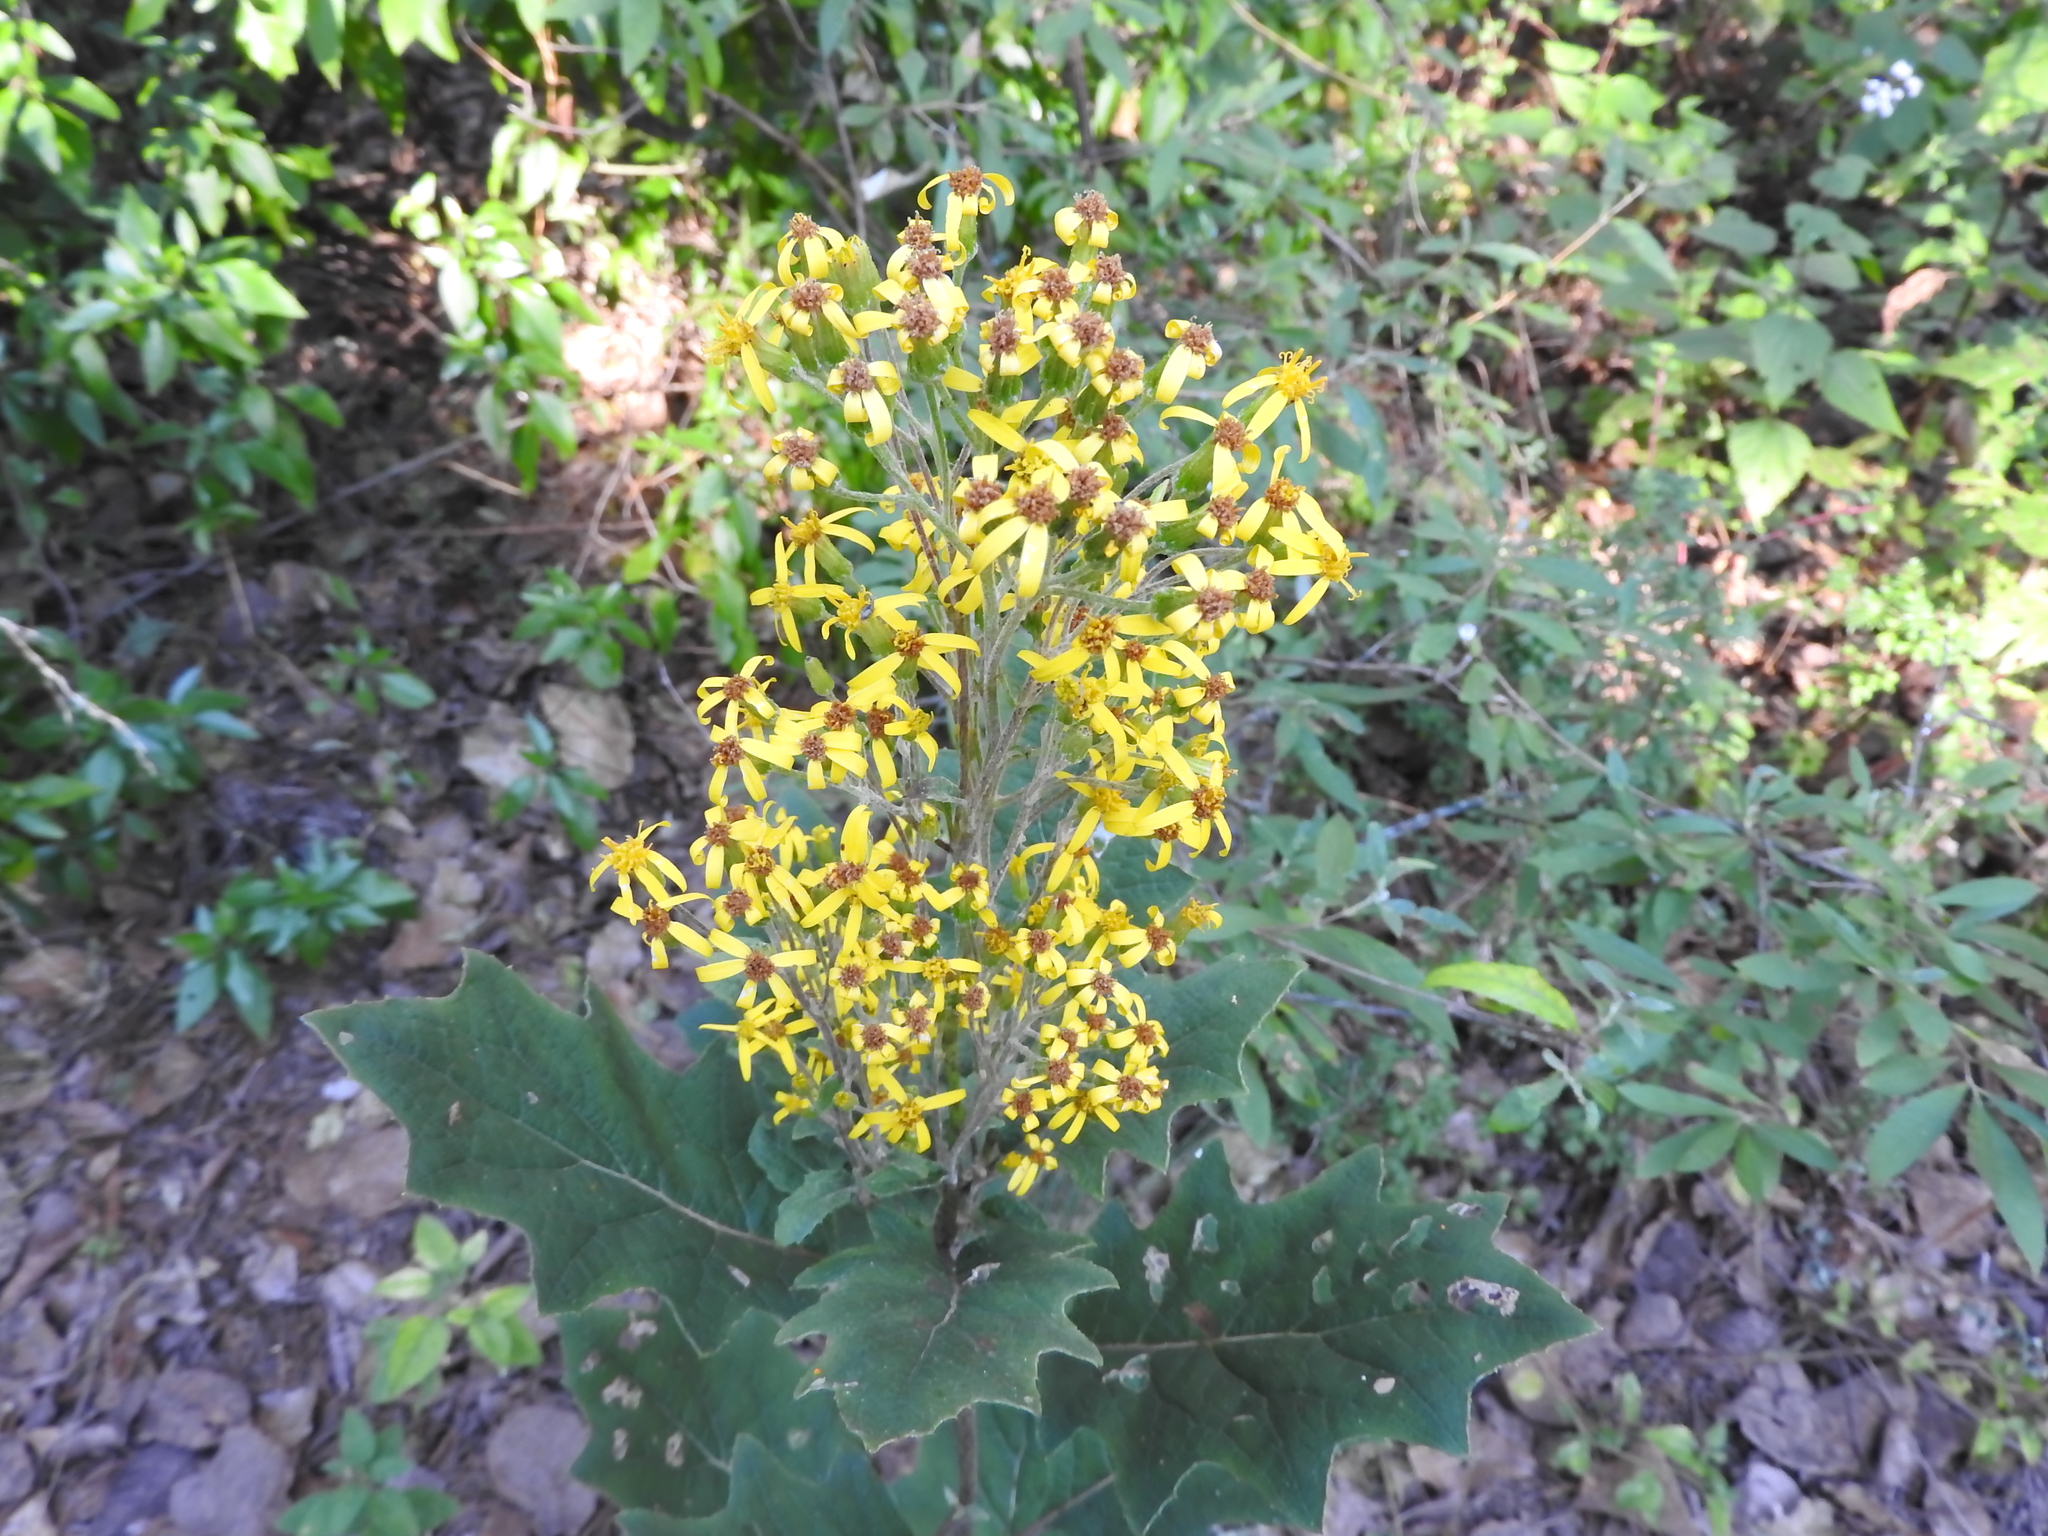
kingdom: Plantae
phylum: Tracheophyta
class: Magnoliopsida
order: Asterales
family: Asteraceae
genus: Roldana
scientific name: Roldana candicans
